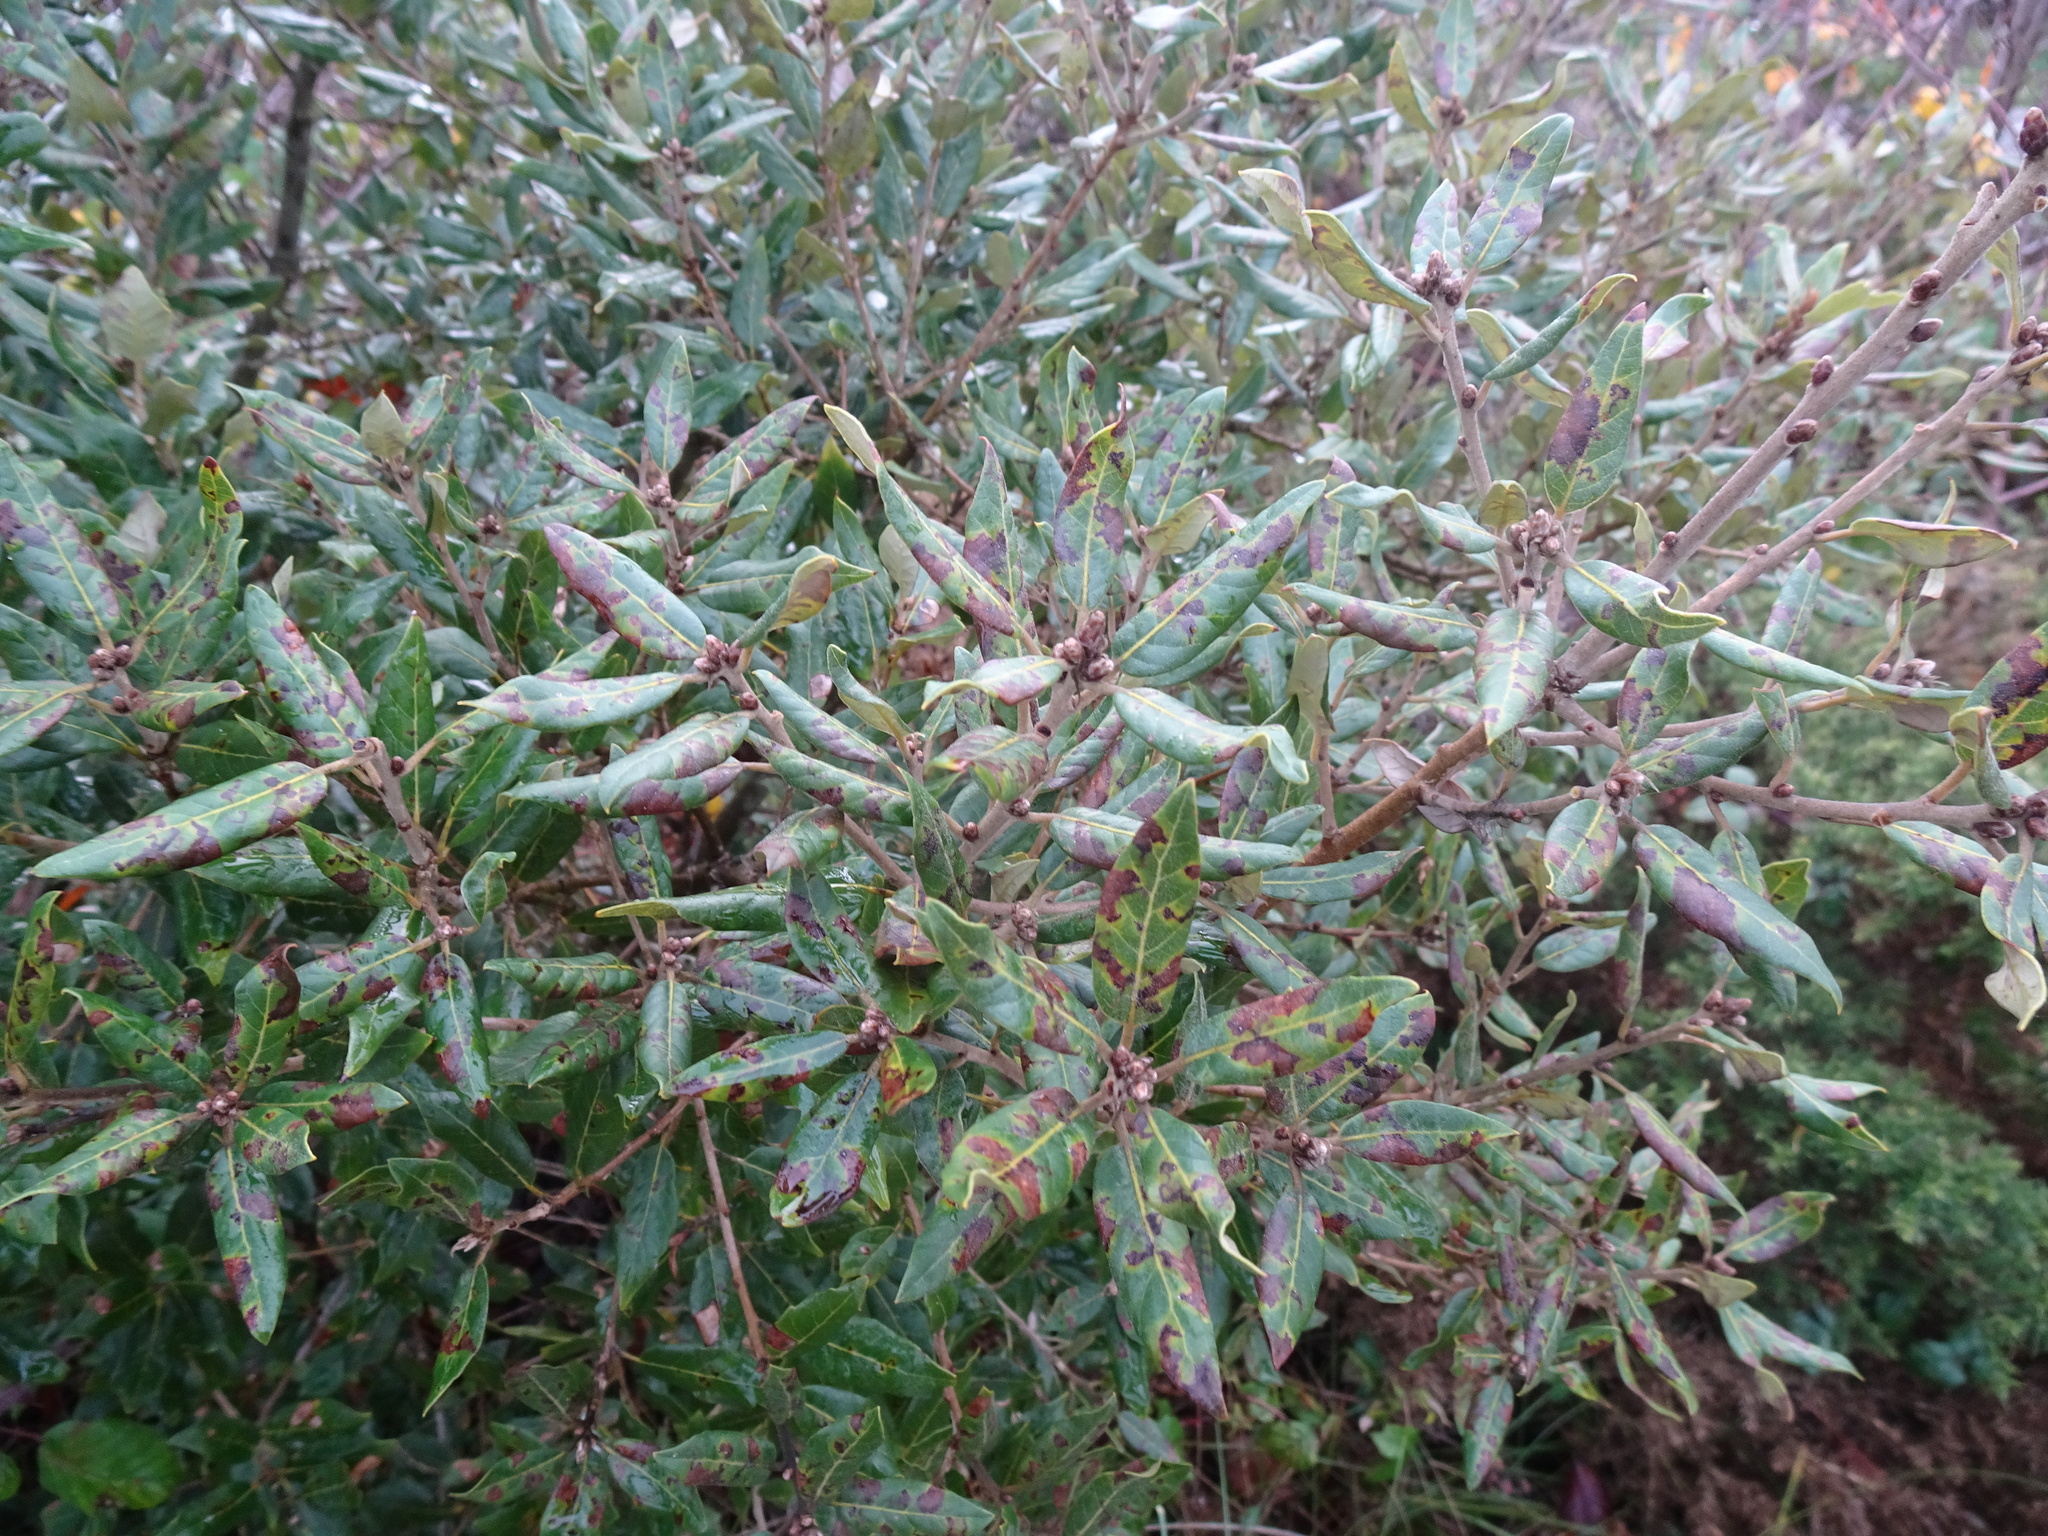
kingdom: Plantae
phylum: Tracheophyta
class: Magnoliopsida
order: Fagales
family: Fagaceae
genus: Quercus
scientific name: Quercus ilex
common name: Evergreen oak
